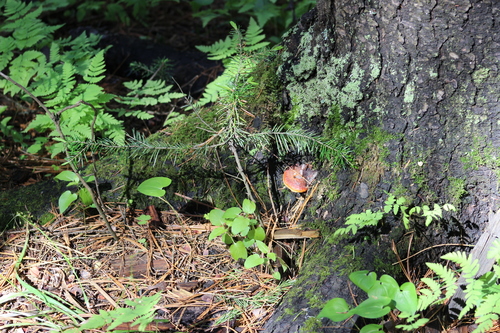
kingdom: Fungi
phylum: Basidiomycota
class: Agaricomycetes
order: Polyporales
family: Fomitopsidaceae
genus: Fomitopsis
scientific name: Fomitopsis pinicola
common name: Red-belted bracket
